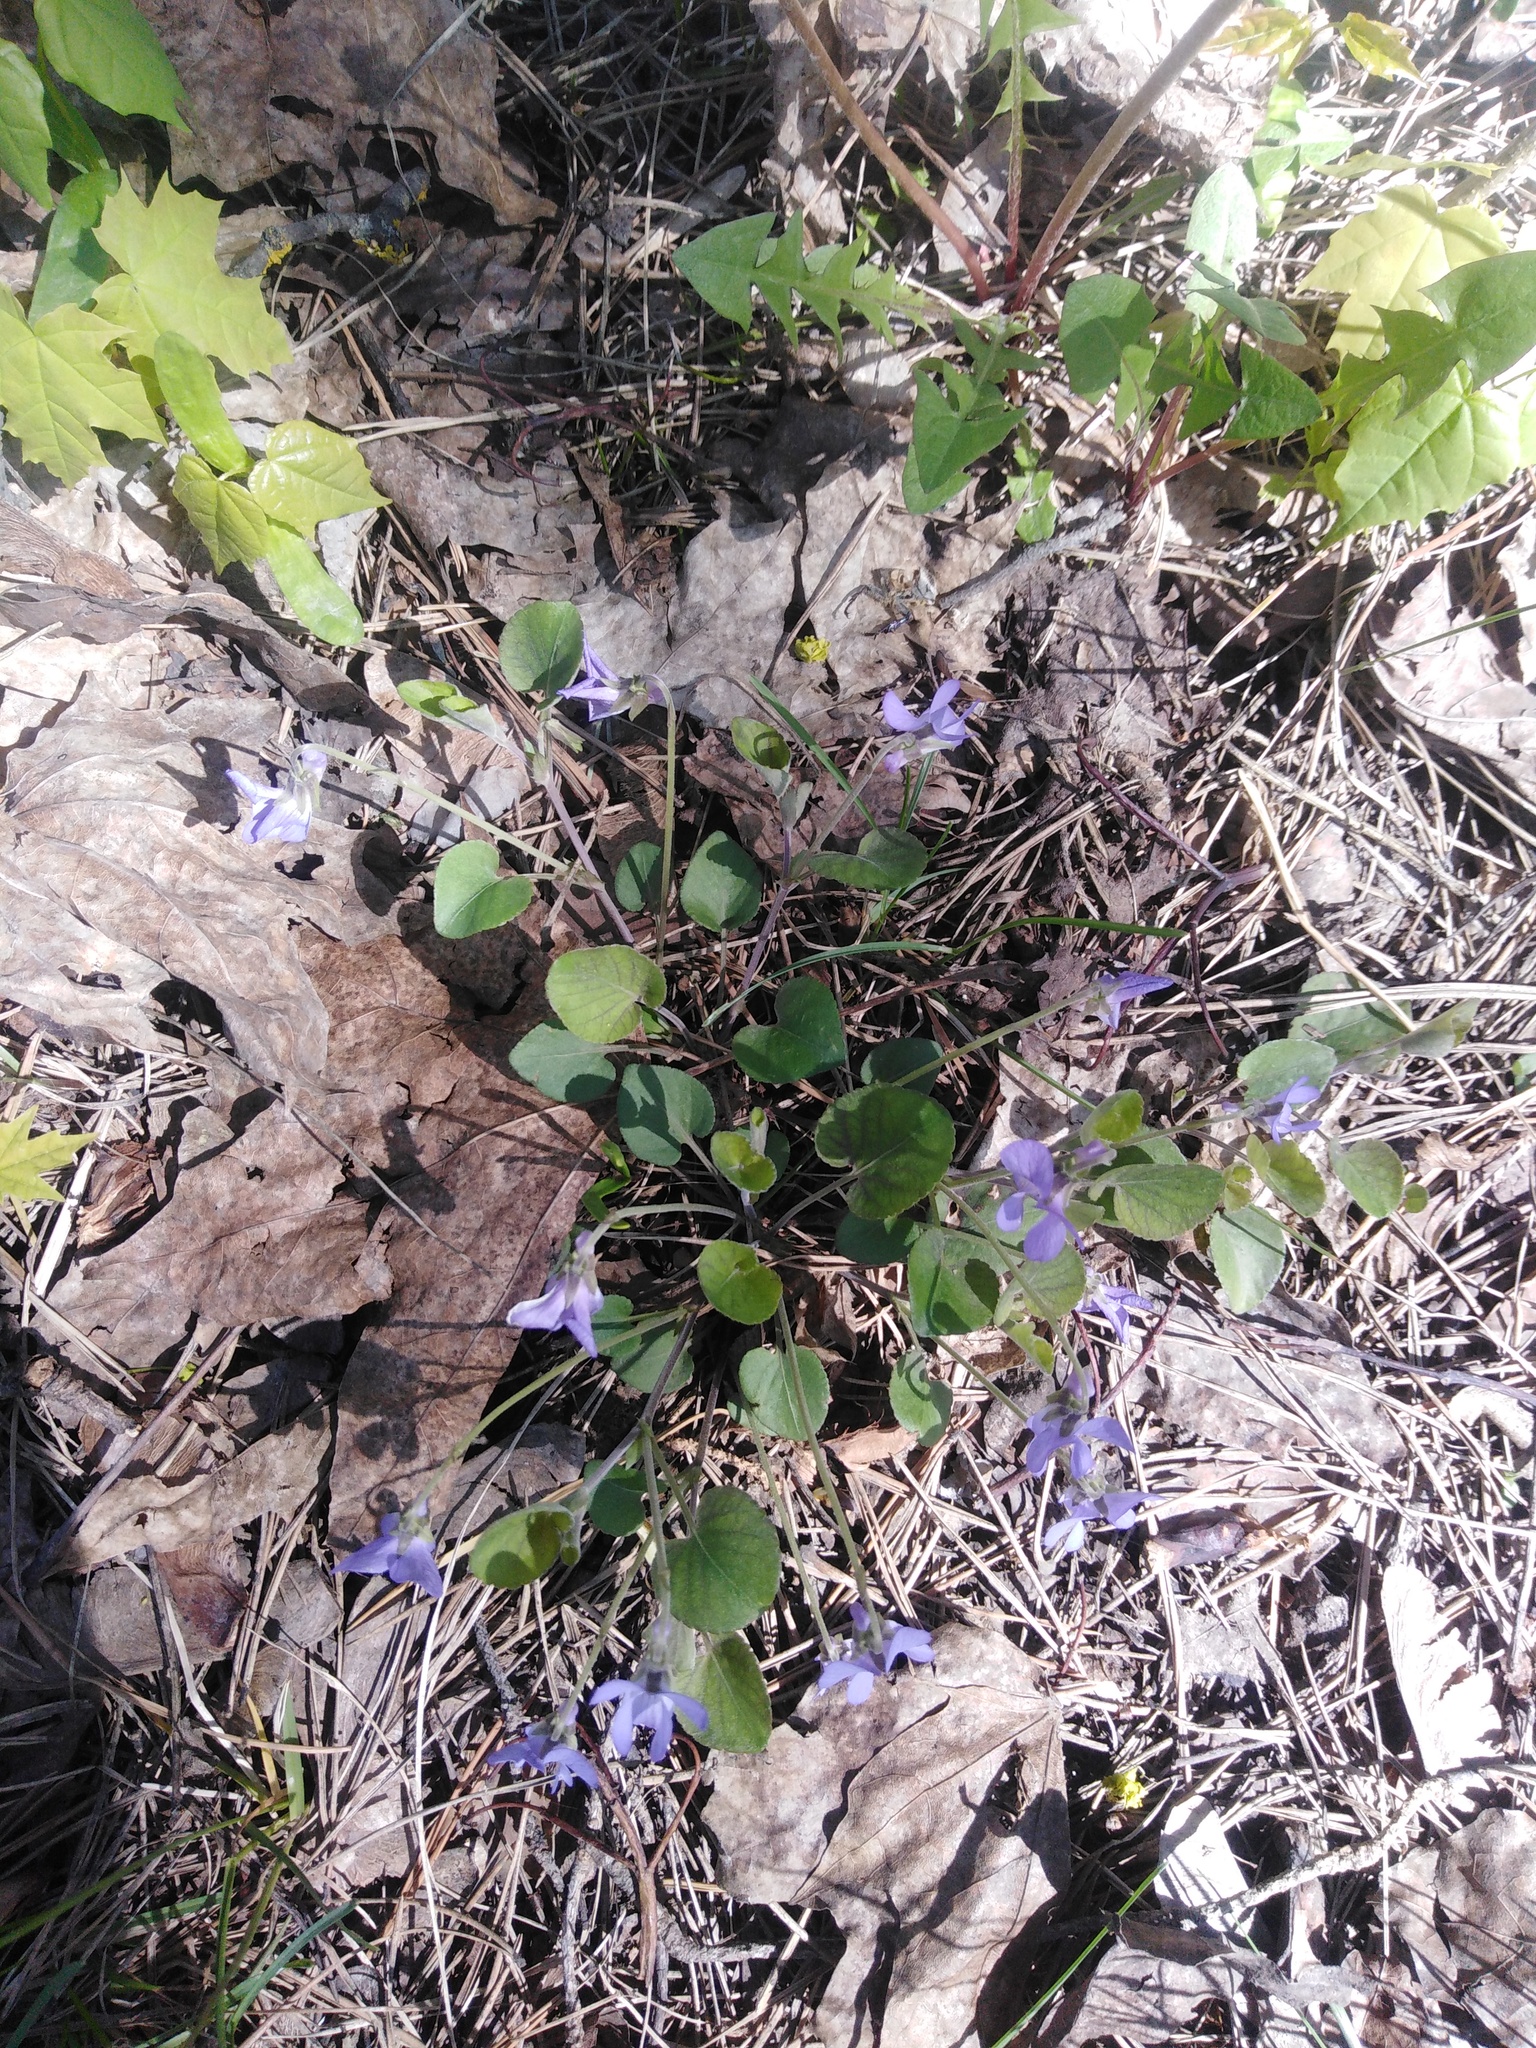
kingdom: Plantae
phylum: Tracheophyta
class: Magnoliopsida
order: Malpighiales
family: Violaceae
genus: Viola
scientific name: Viola rupestris
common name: Teesdale violet
